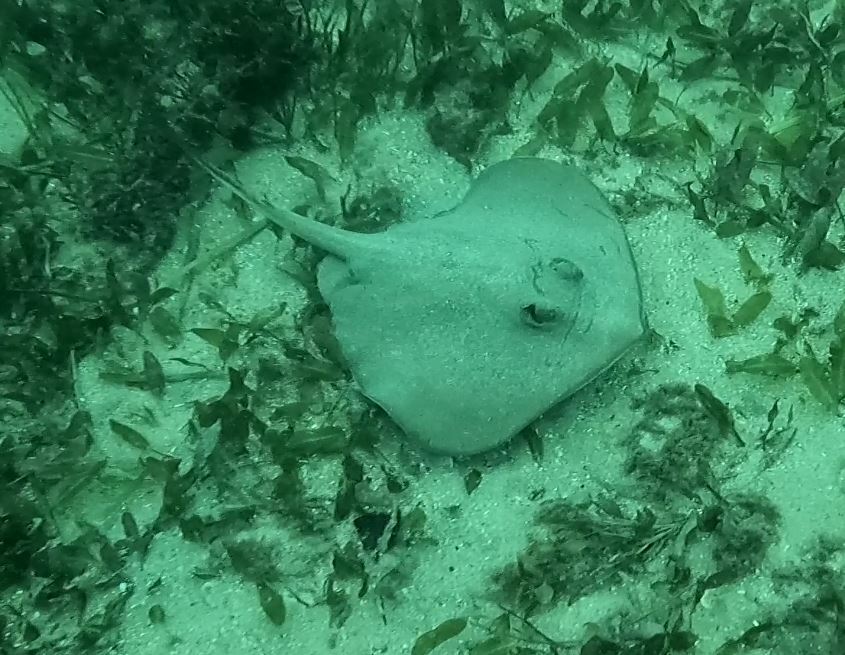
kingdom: Animalia
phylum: Chordata
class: Elasmobranchii
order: Myliobatiformes
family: Urolophidae
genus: Trygonoptera
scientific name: Trygonoptera testacea
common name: Common stingaree
